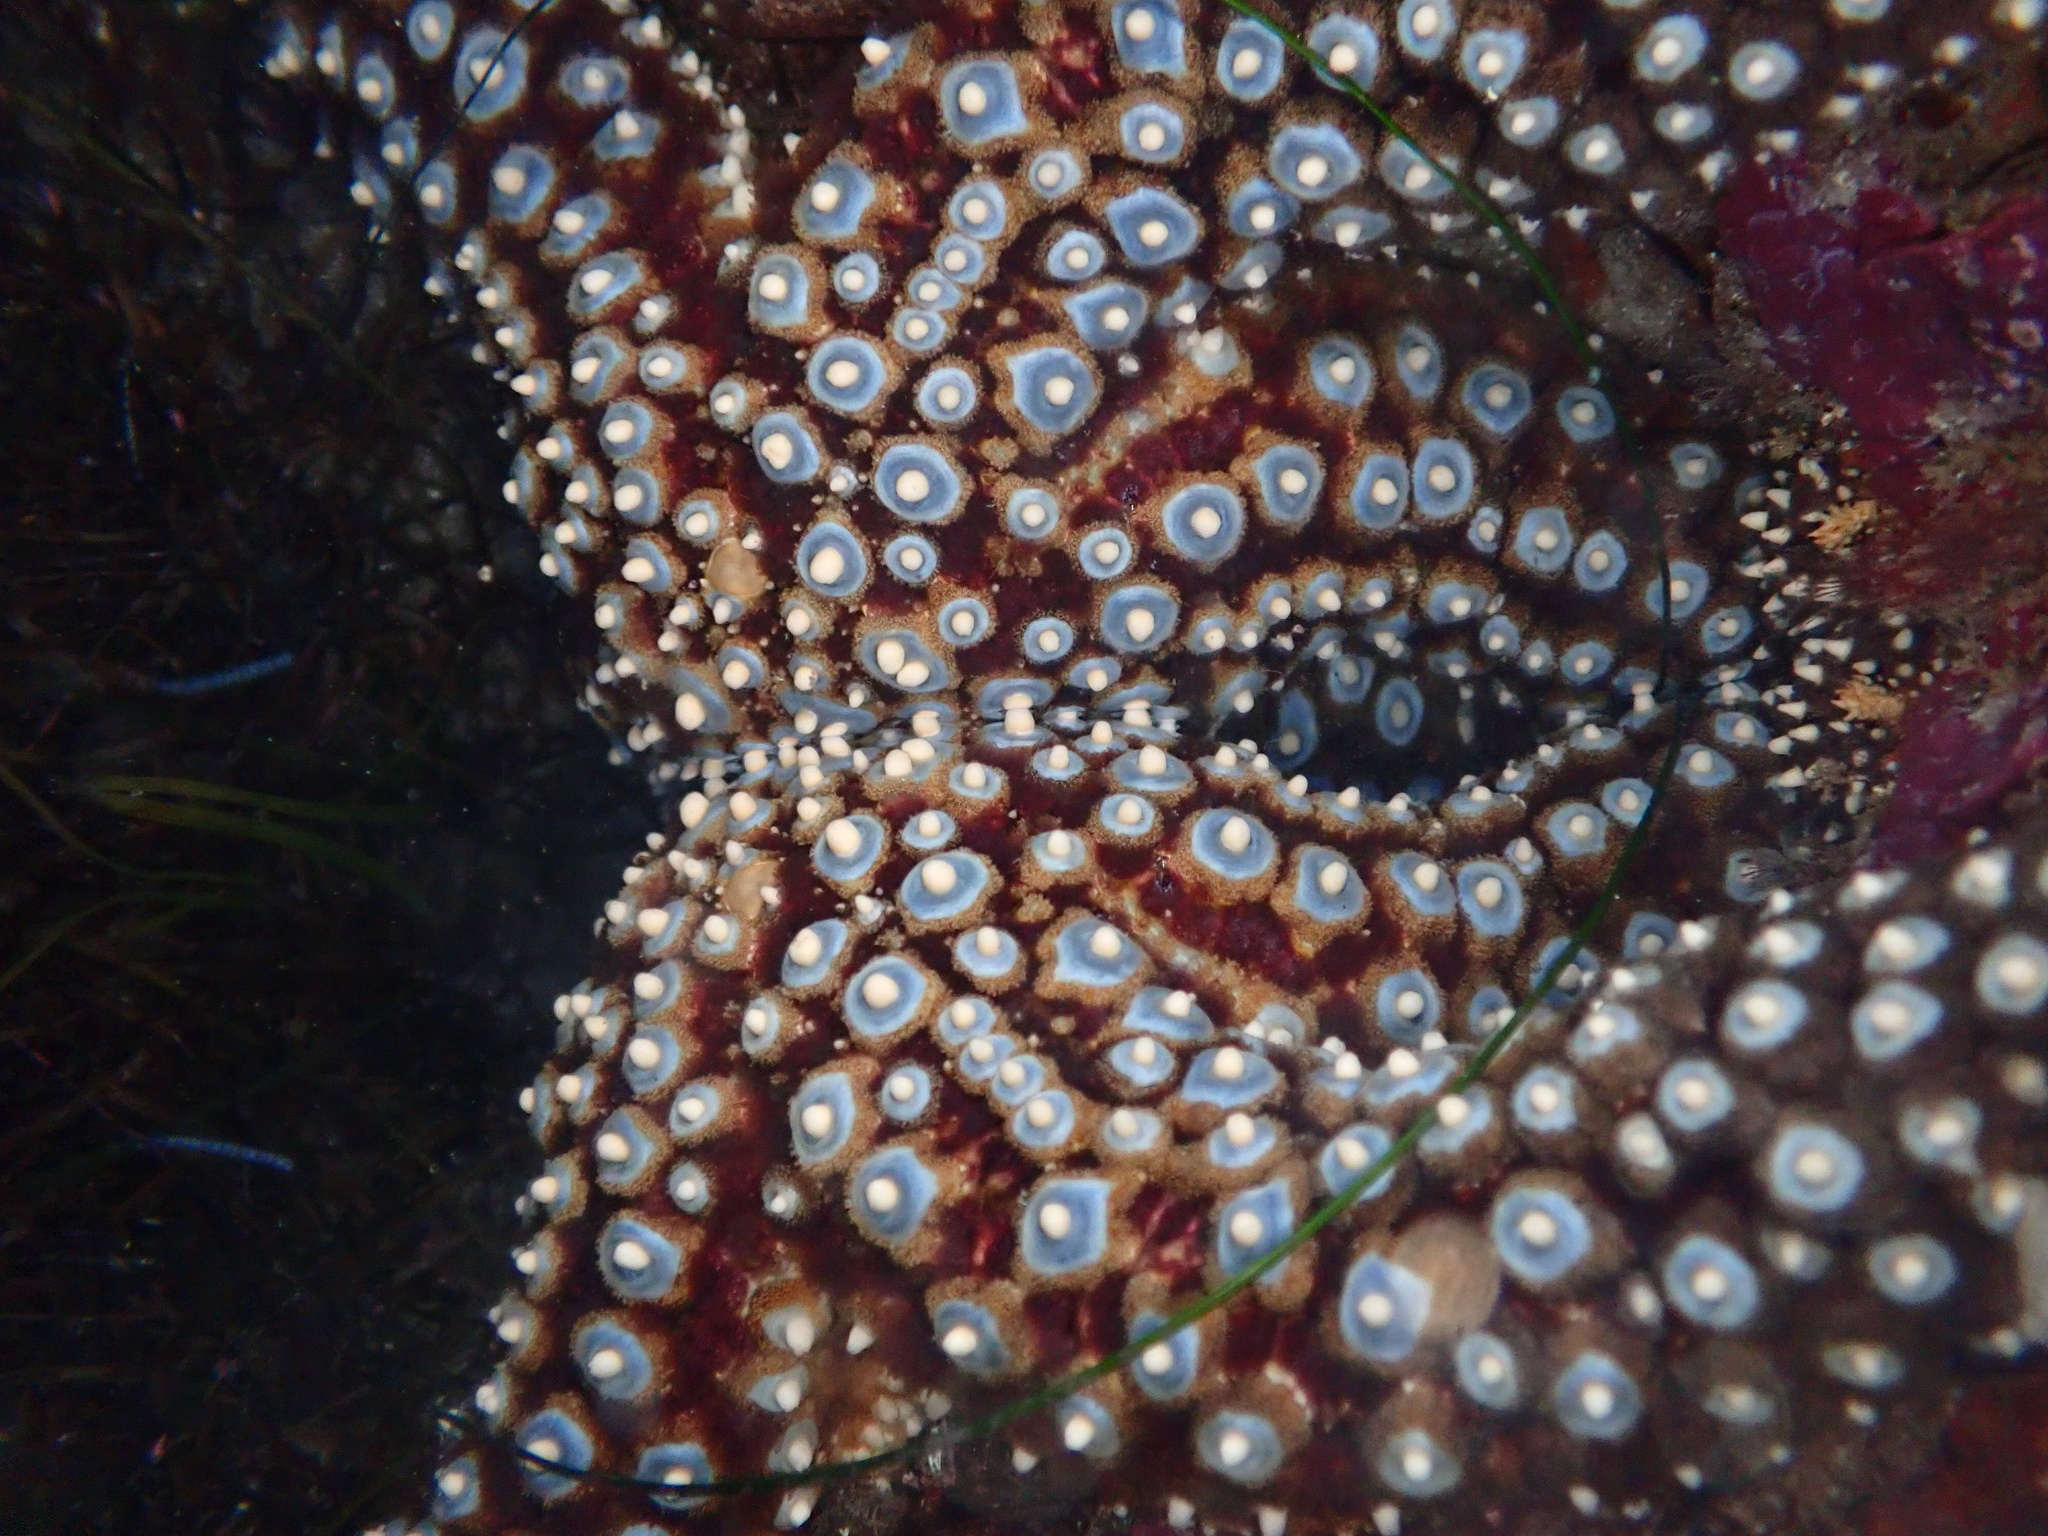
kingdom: Animalia
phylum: Echinodermata
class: Asteroidea
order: Forcipulatida
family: Asteriidae
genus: Pisaster
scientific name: Pisaster giganteus
